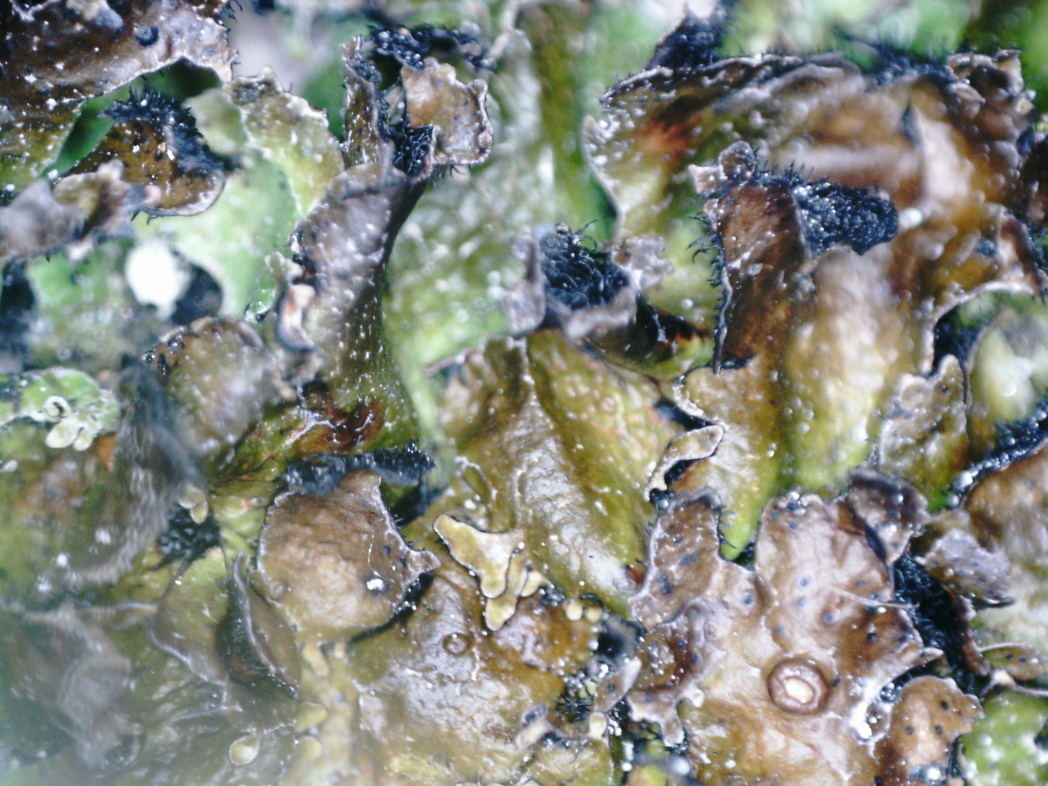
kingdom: Fungi
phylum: Ascomycota
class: Lecanoromycetes
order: Lecanorales
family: Parmeliaceae
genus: Parmelia
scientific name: Parmelia discordans
